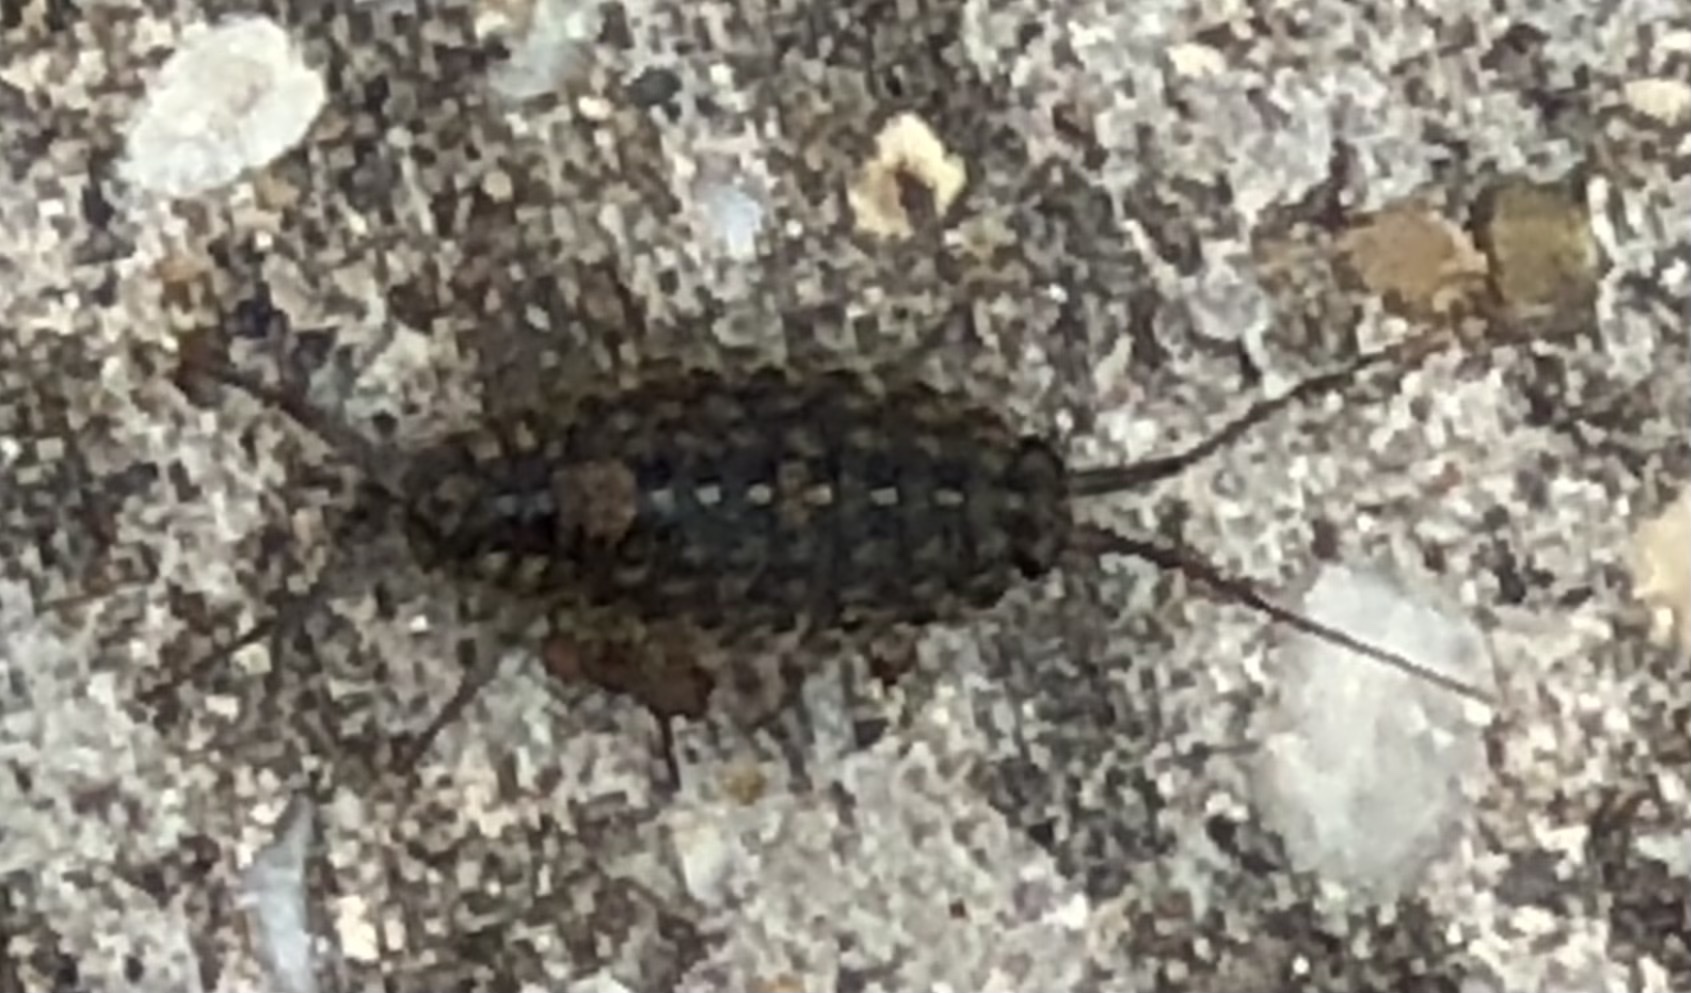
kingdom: Animalia
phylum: Arthropoda
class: Malacostraca
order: Isopoda
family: Ligiidae
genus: Ligia
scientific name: Ligia exotica
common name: Wharf roach
